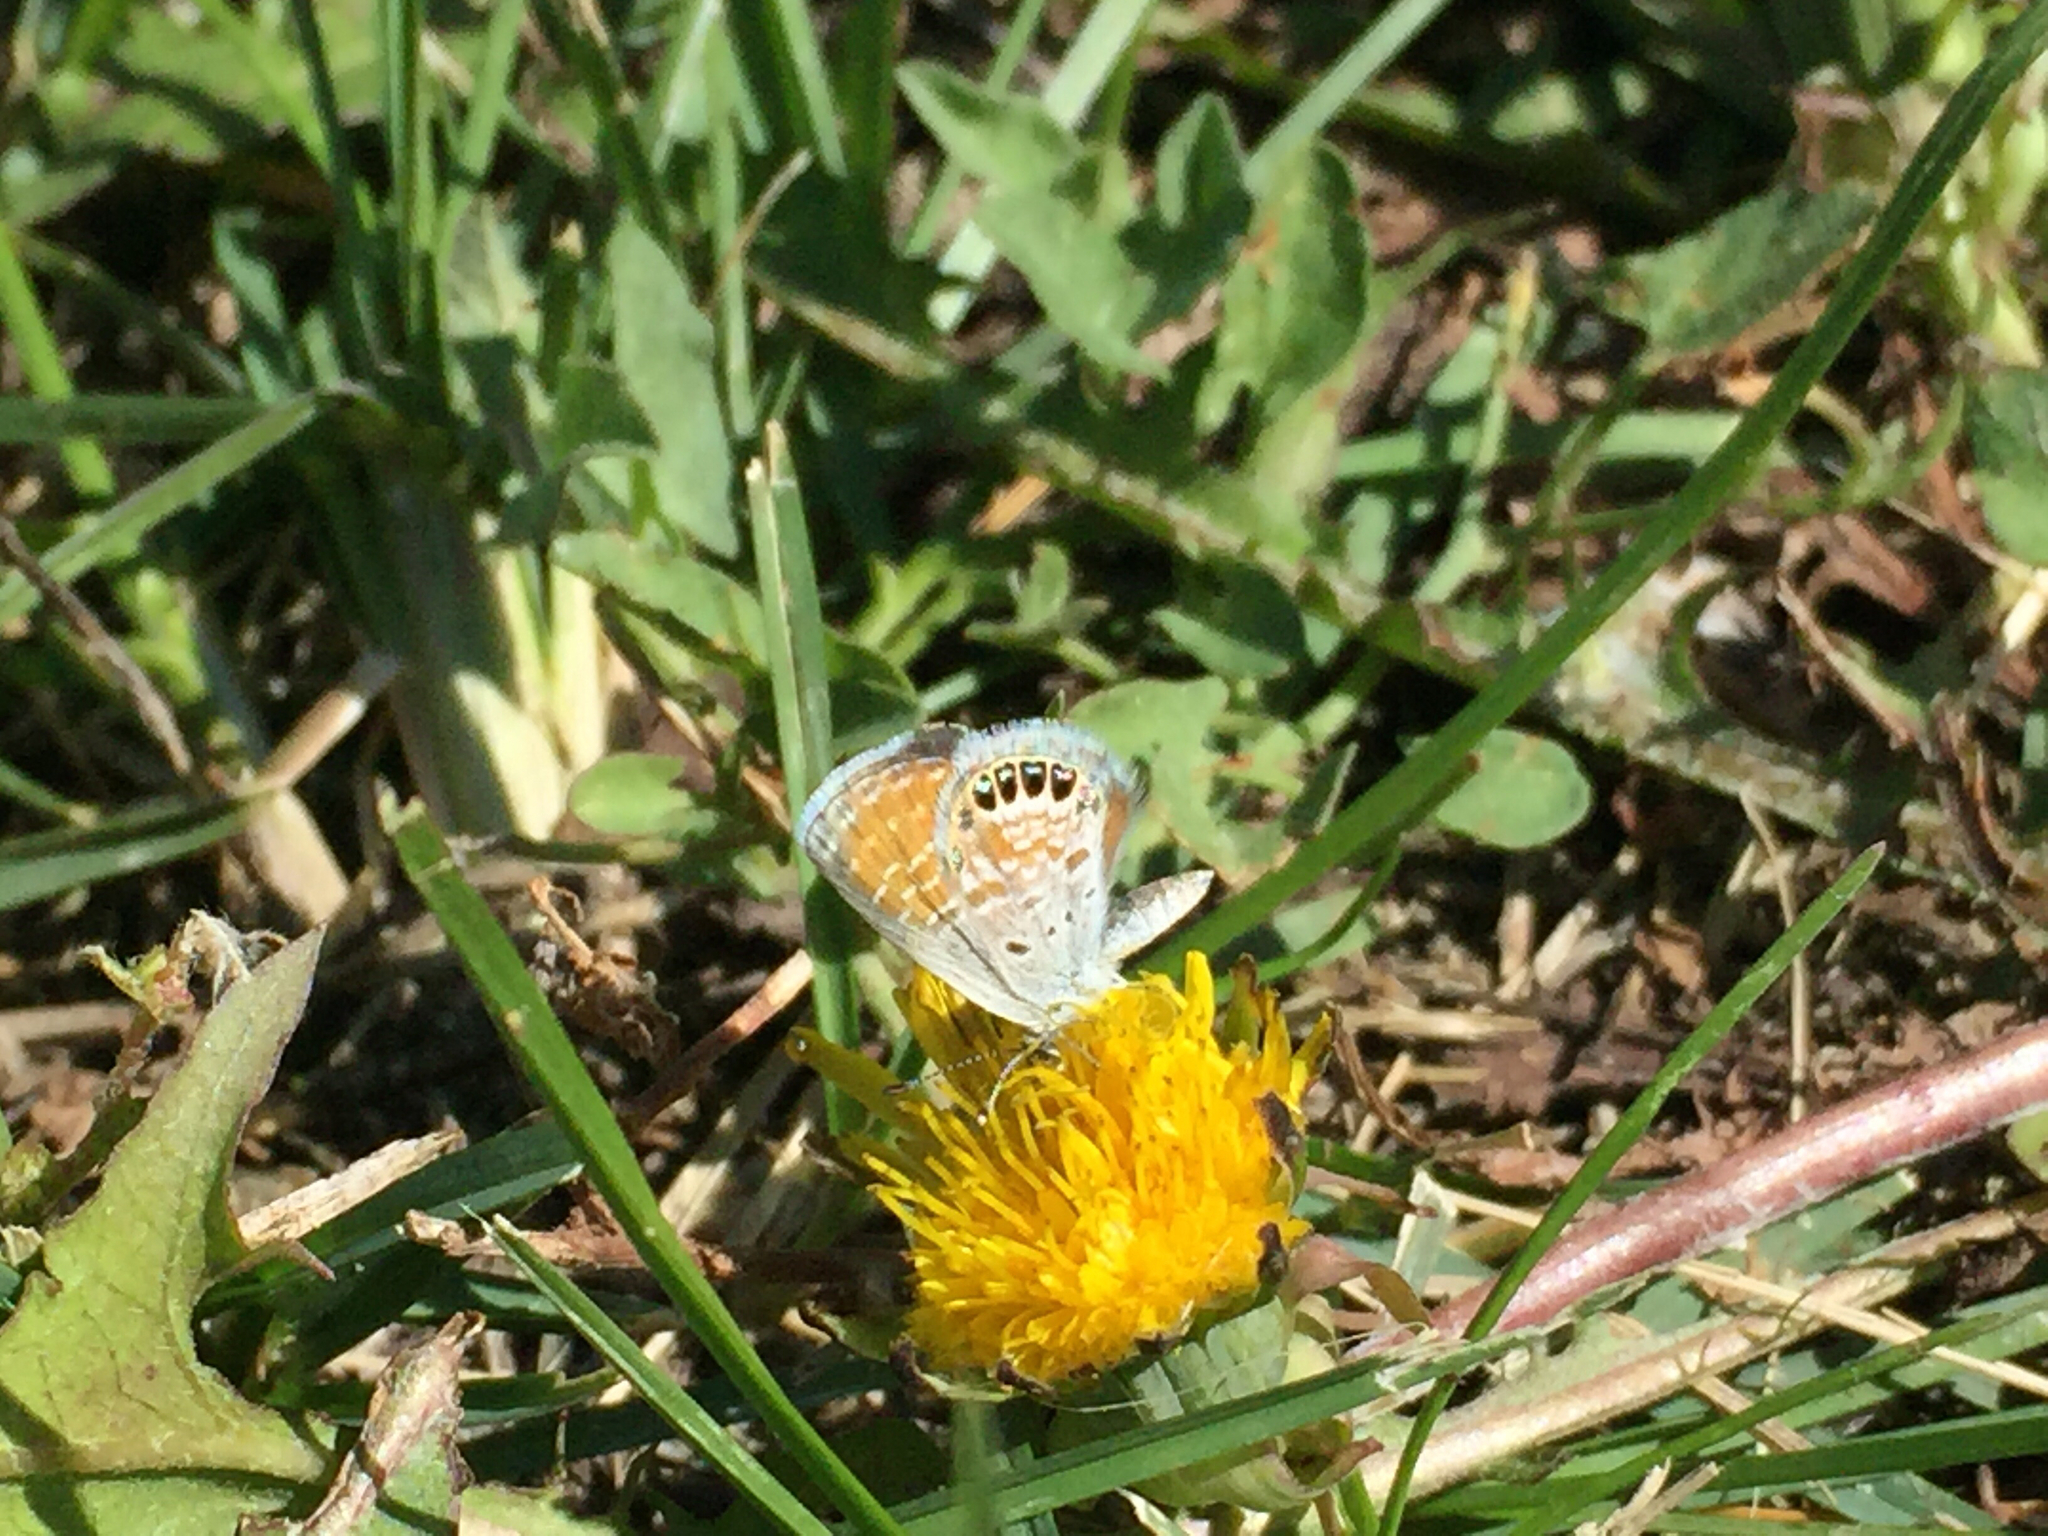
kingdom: Animalia
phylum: Arthropoda
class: Insecta
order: Lepidoptera
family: Lycaenidae
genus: Brephidium
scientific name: Brephidium exilis
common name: Pygmy blue
